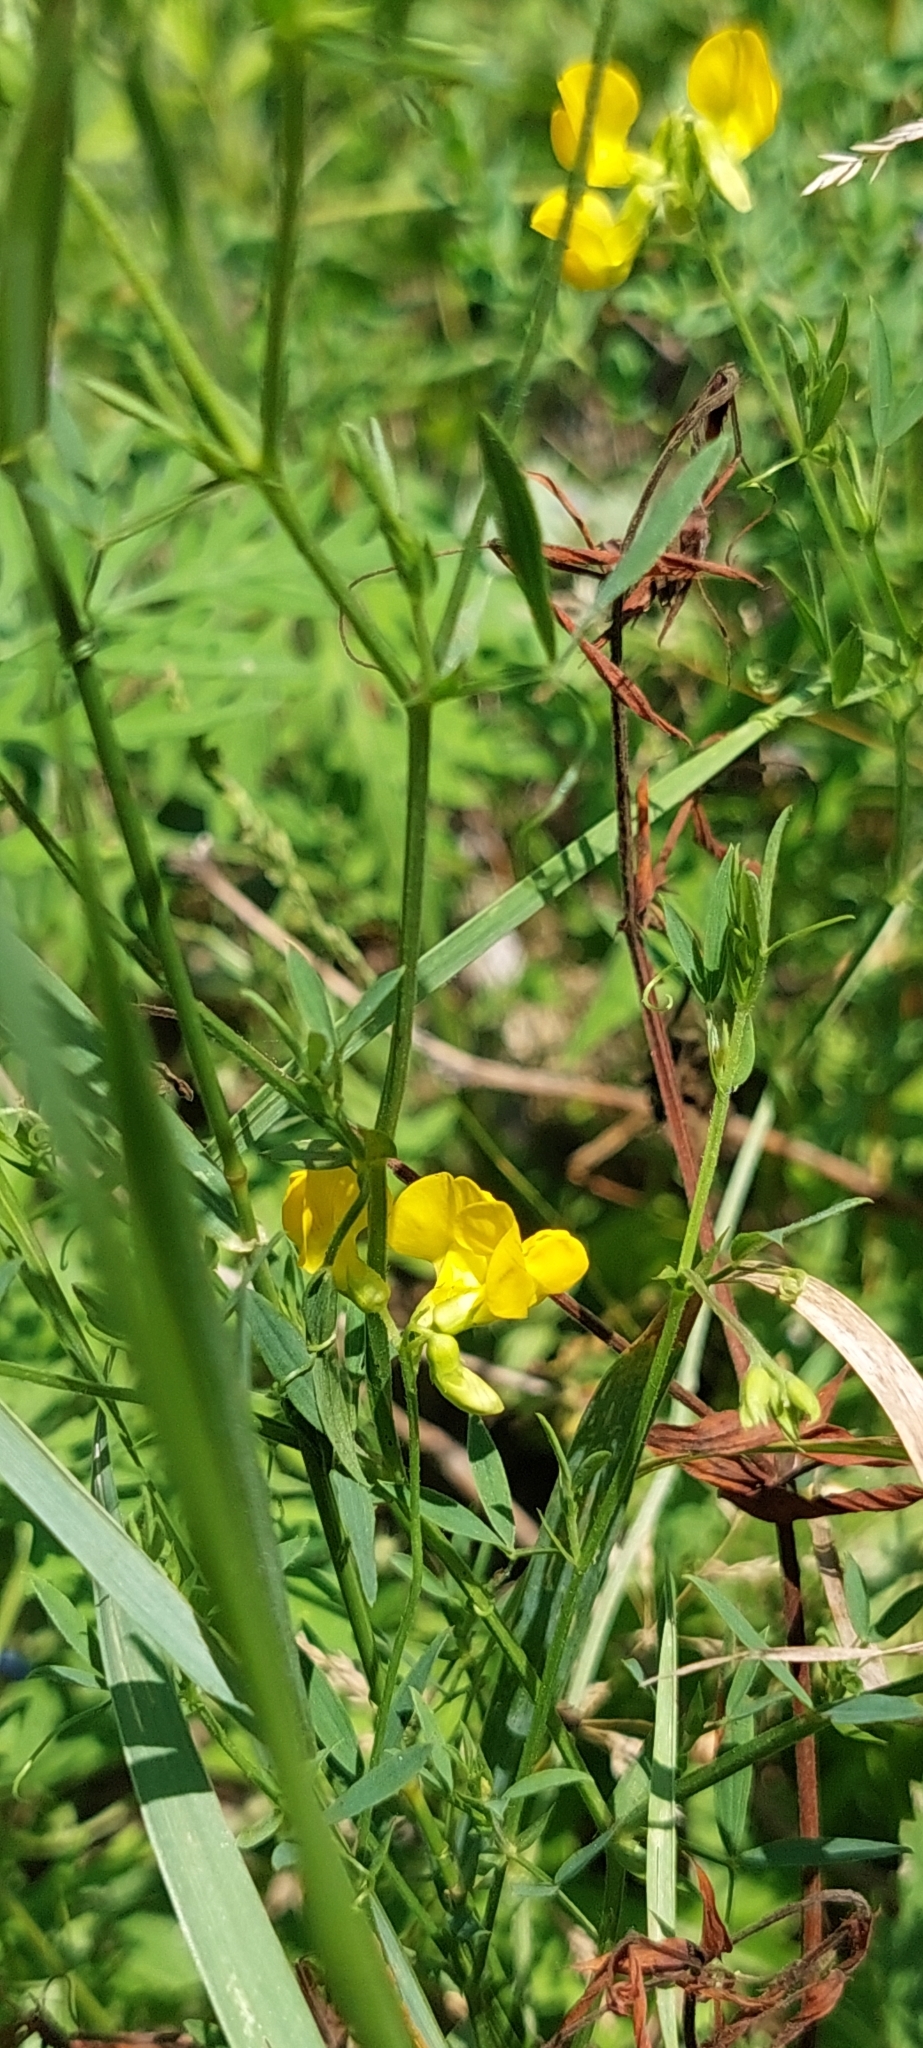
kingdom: Plantae
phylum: Tracheophyta
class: Magnoliopsida
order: Fabales
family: Fabaceae
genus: Lathyrus
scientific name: Lathyrus pratensis
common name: Meadow vetchling
